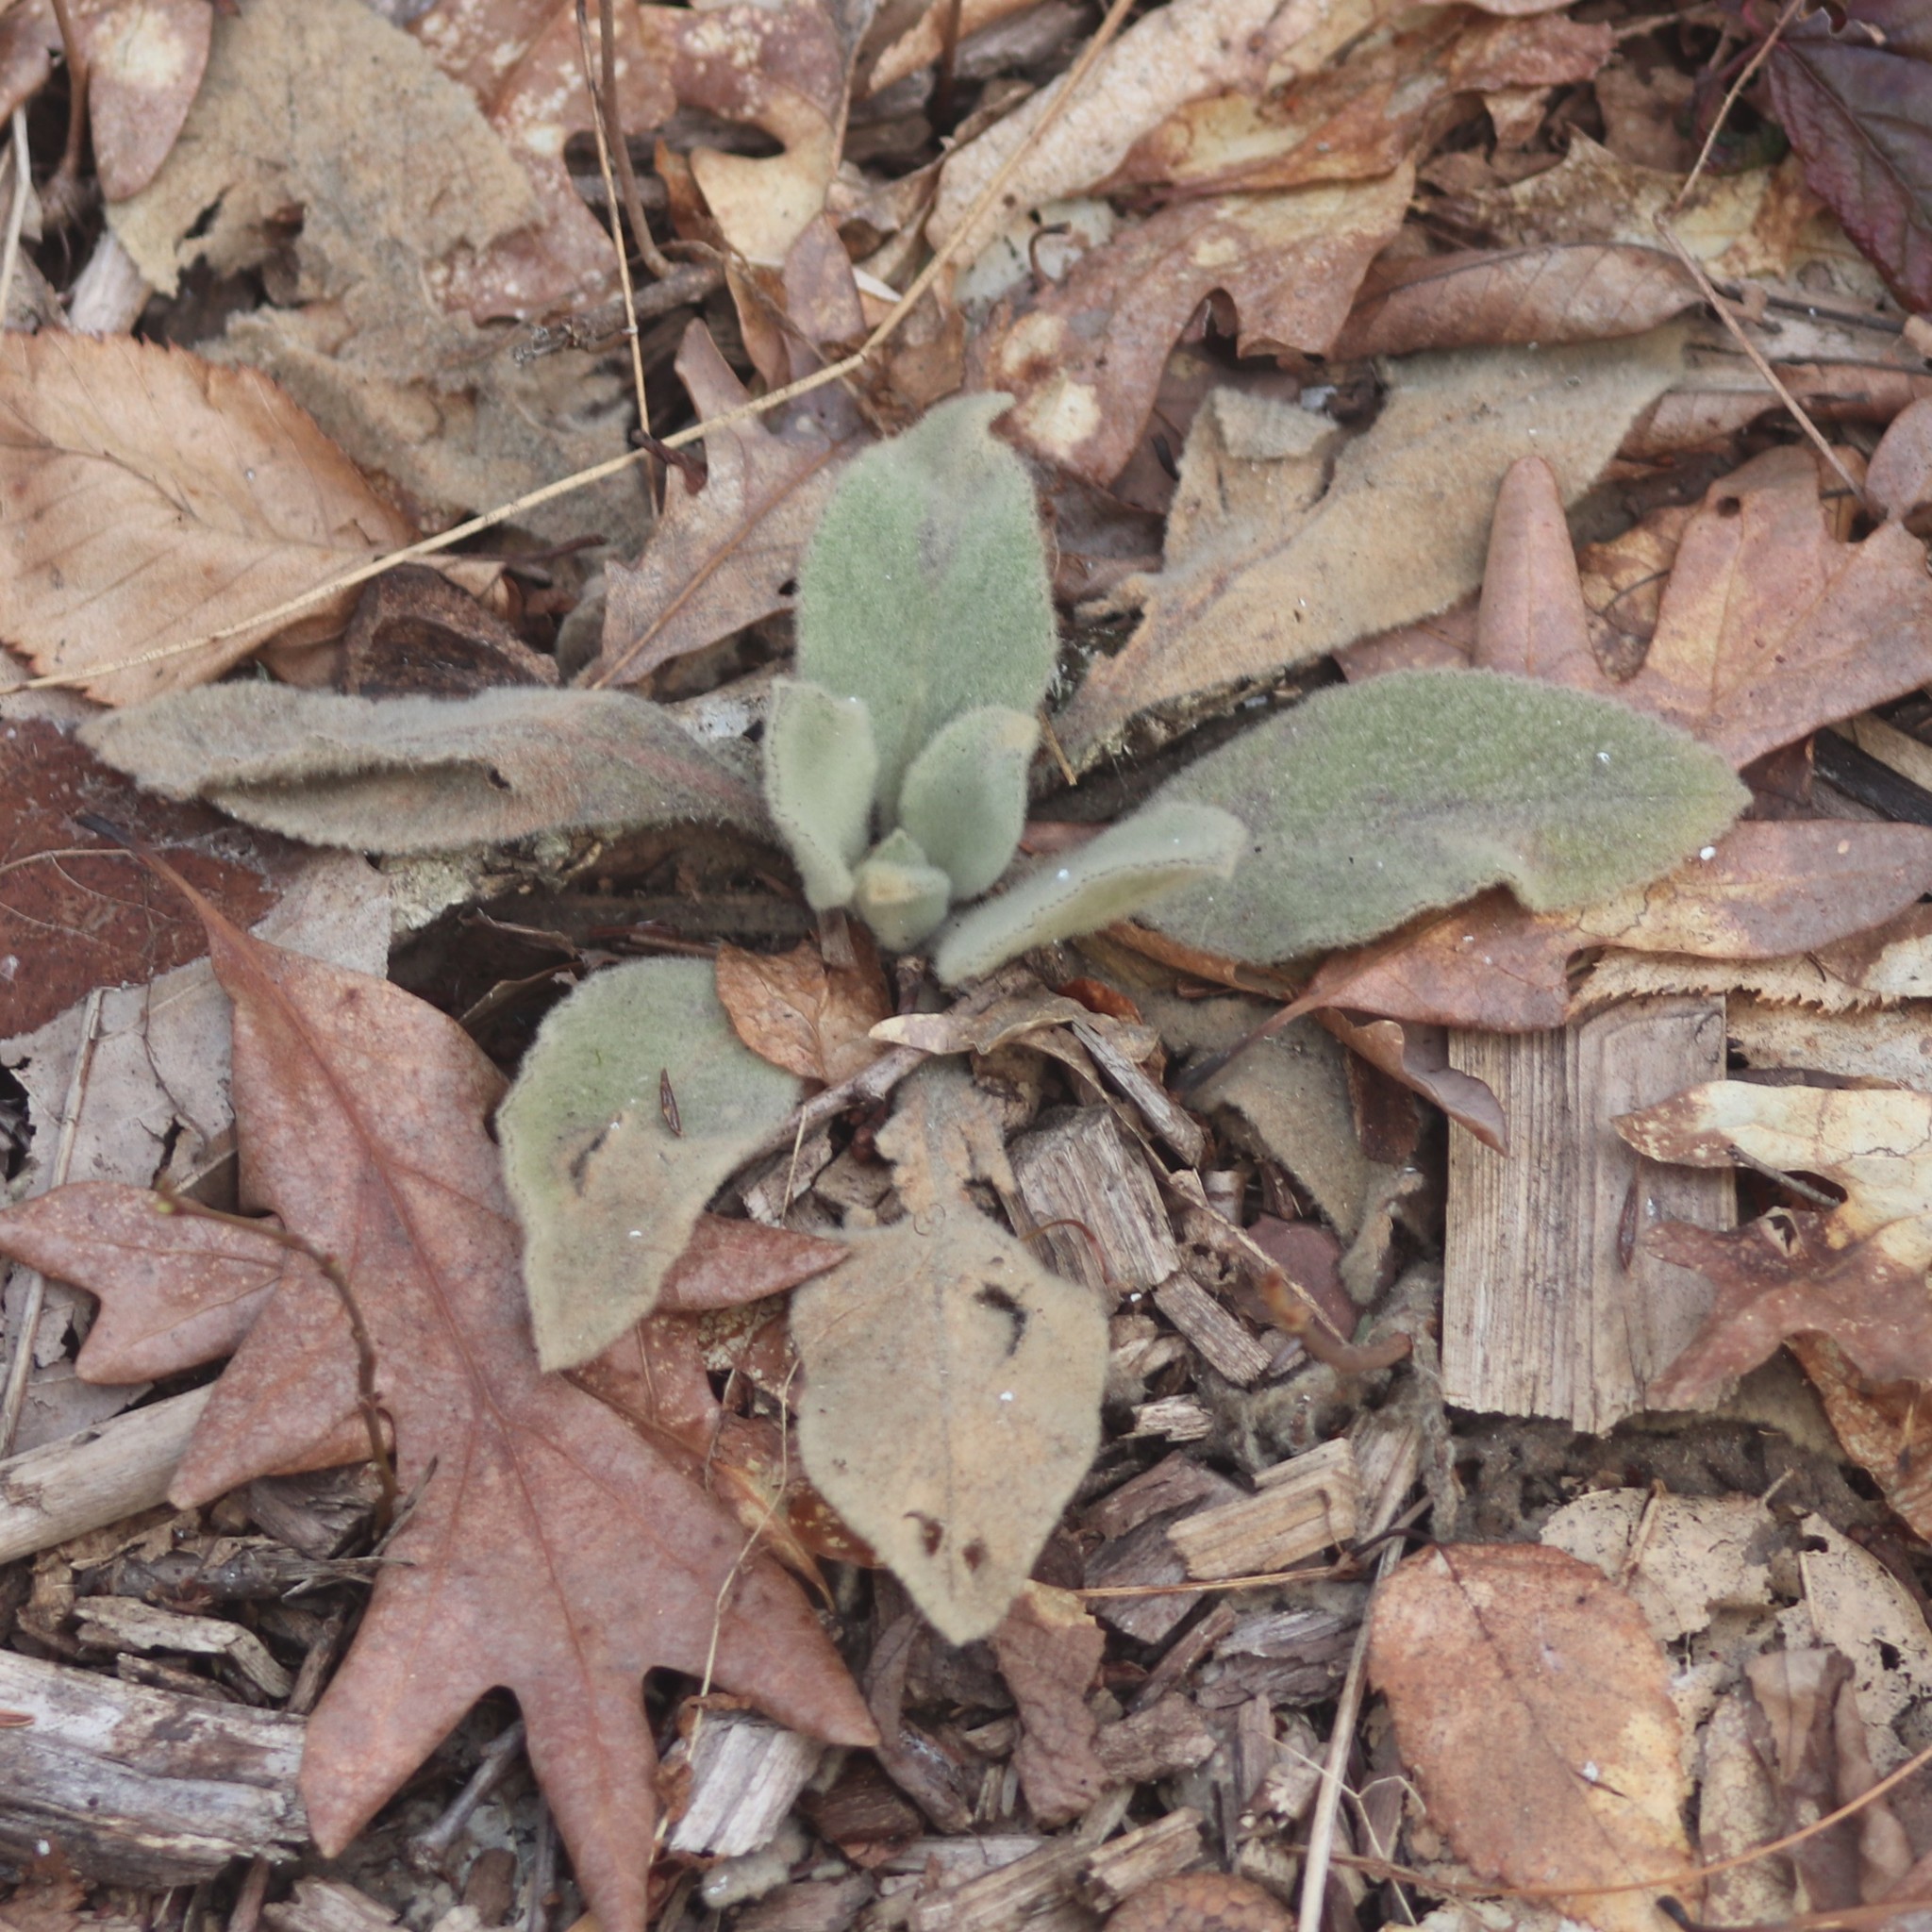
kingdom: Plantae
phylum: Tracheophyta
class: Magnoliopsida
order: Lamiales
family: Scrophulariaceae
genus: Verbascum
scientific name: Verbascum thapsus
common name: Common mullein
